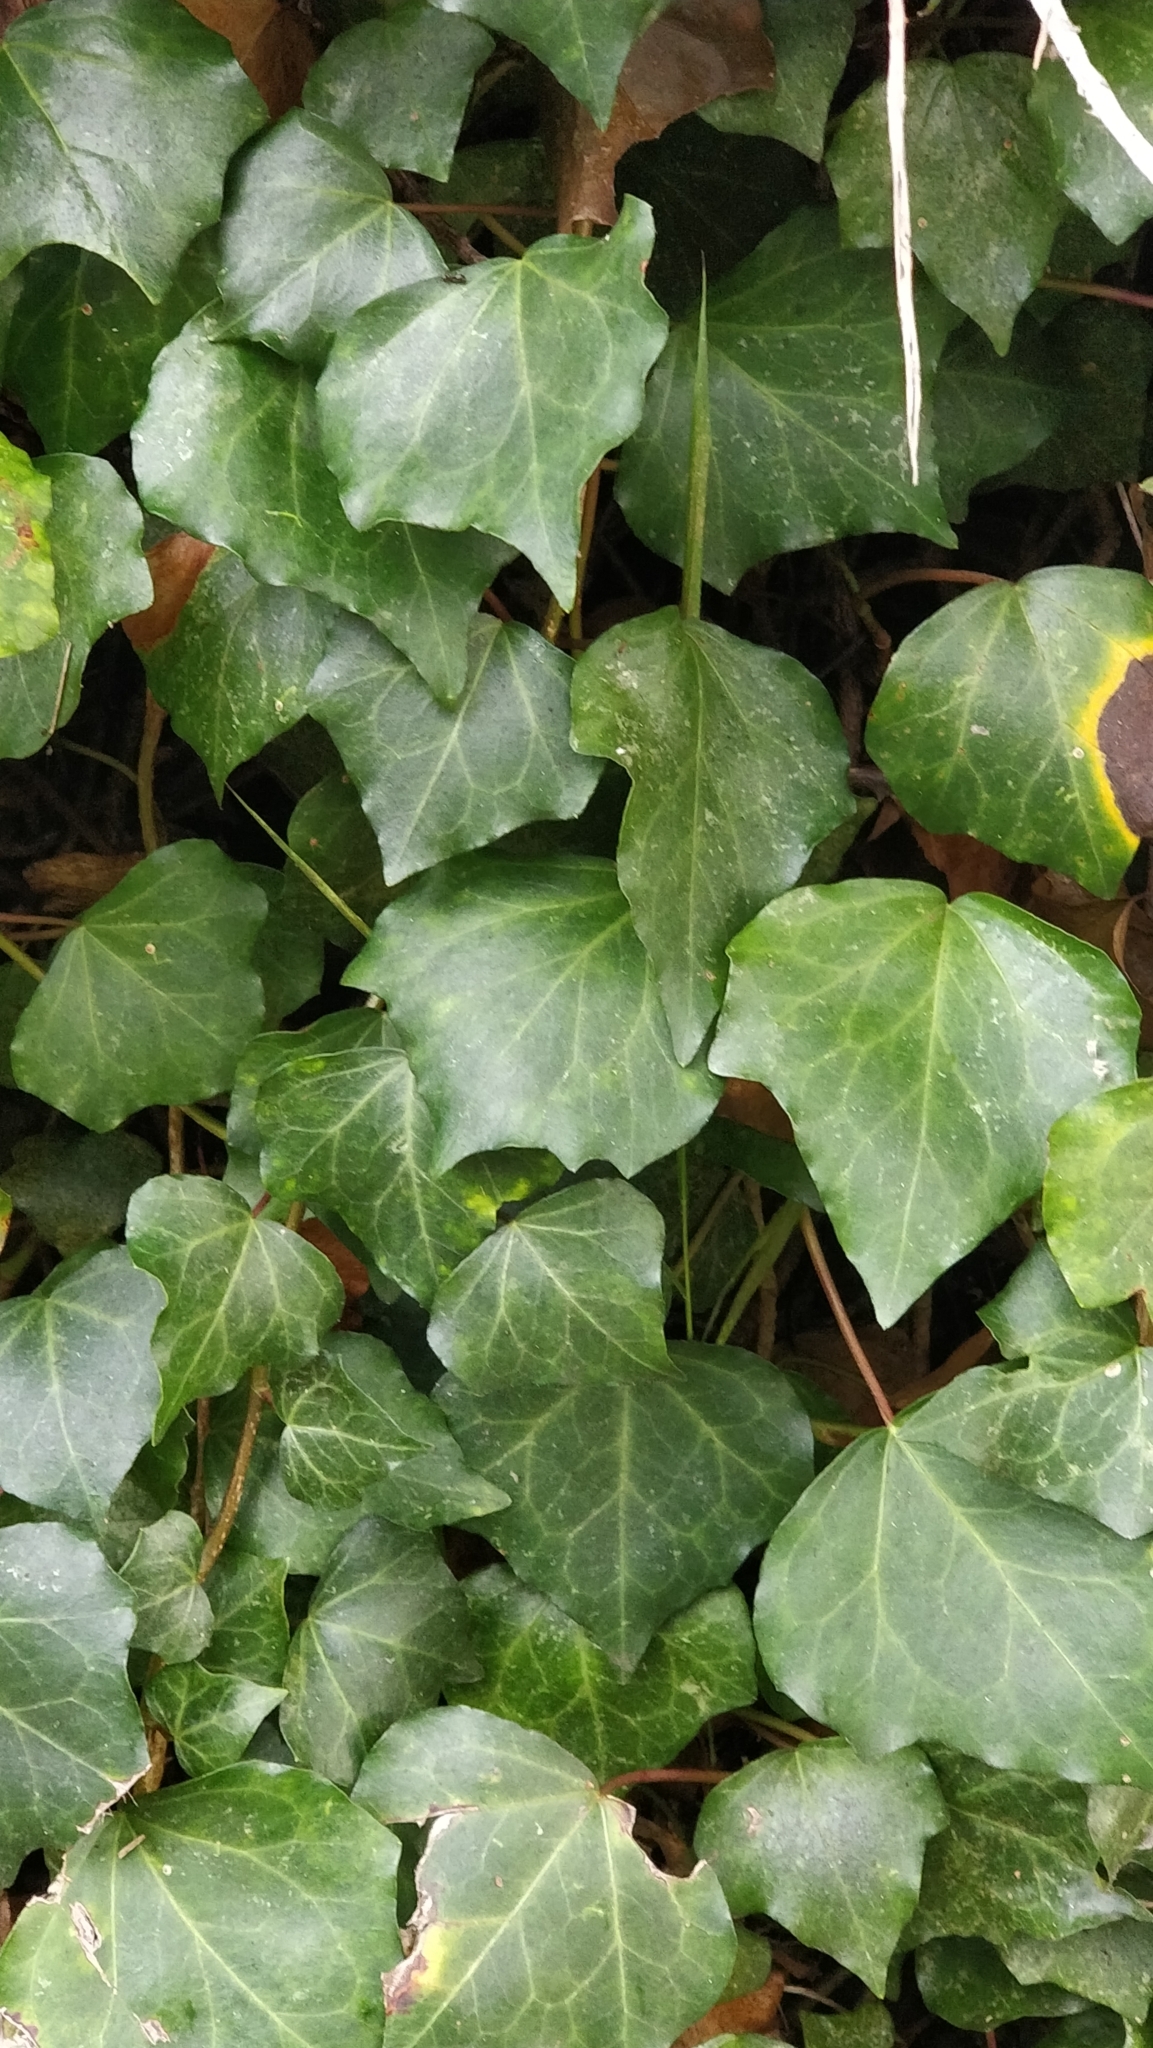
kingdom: Plantae
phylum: Tracheophyta
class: Magnoliopsida
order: Apiales
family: Araliaceae
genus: Hedera
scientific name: Hedera maderensis
